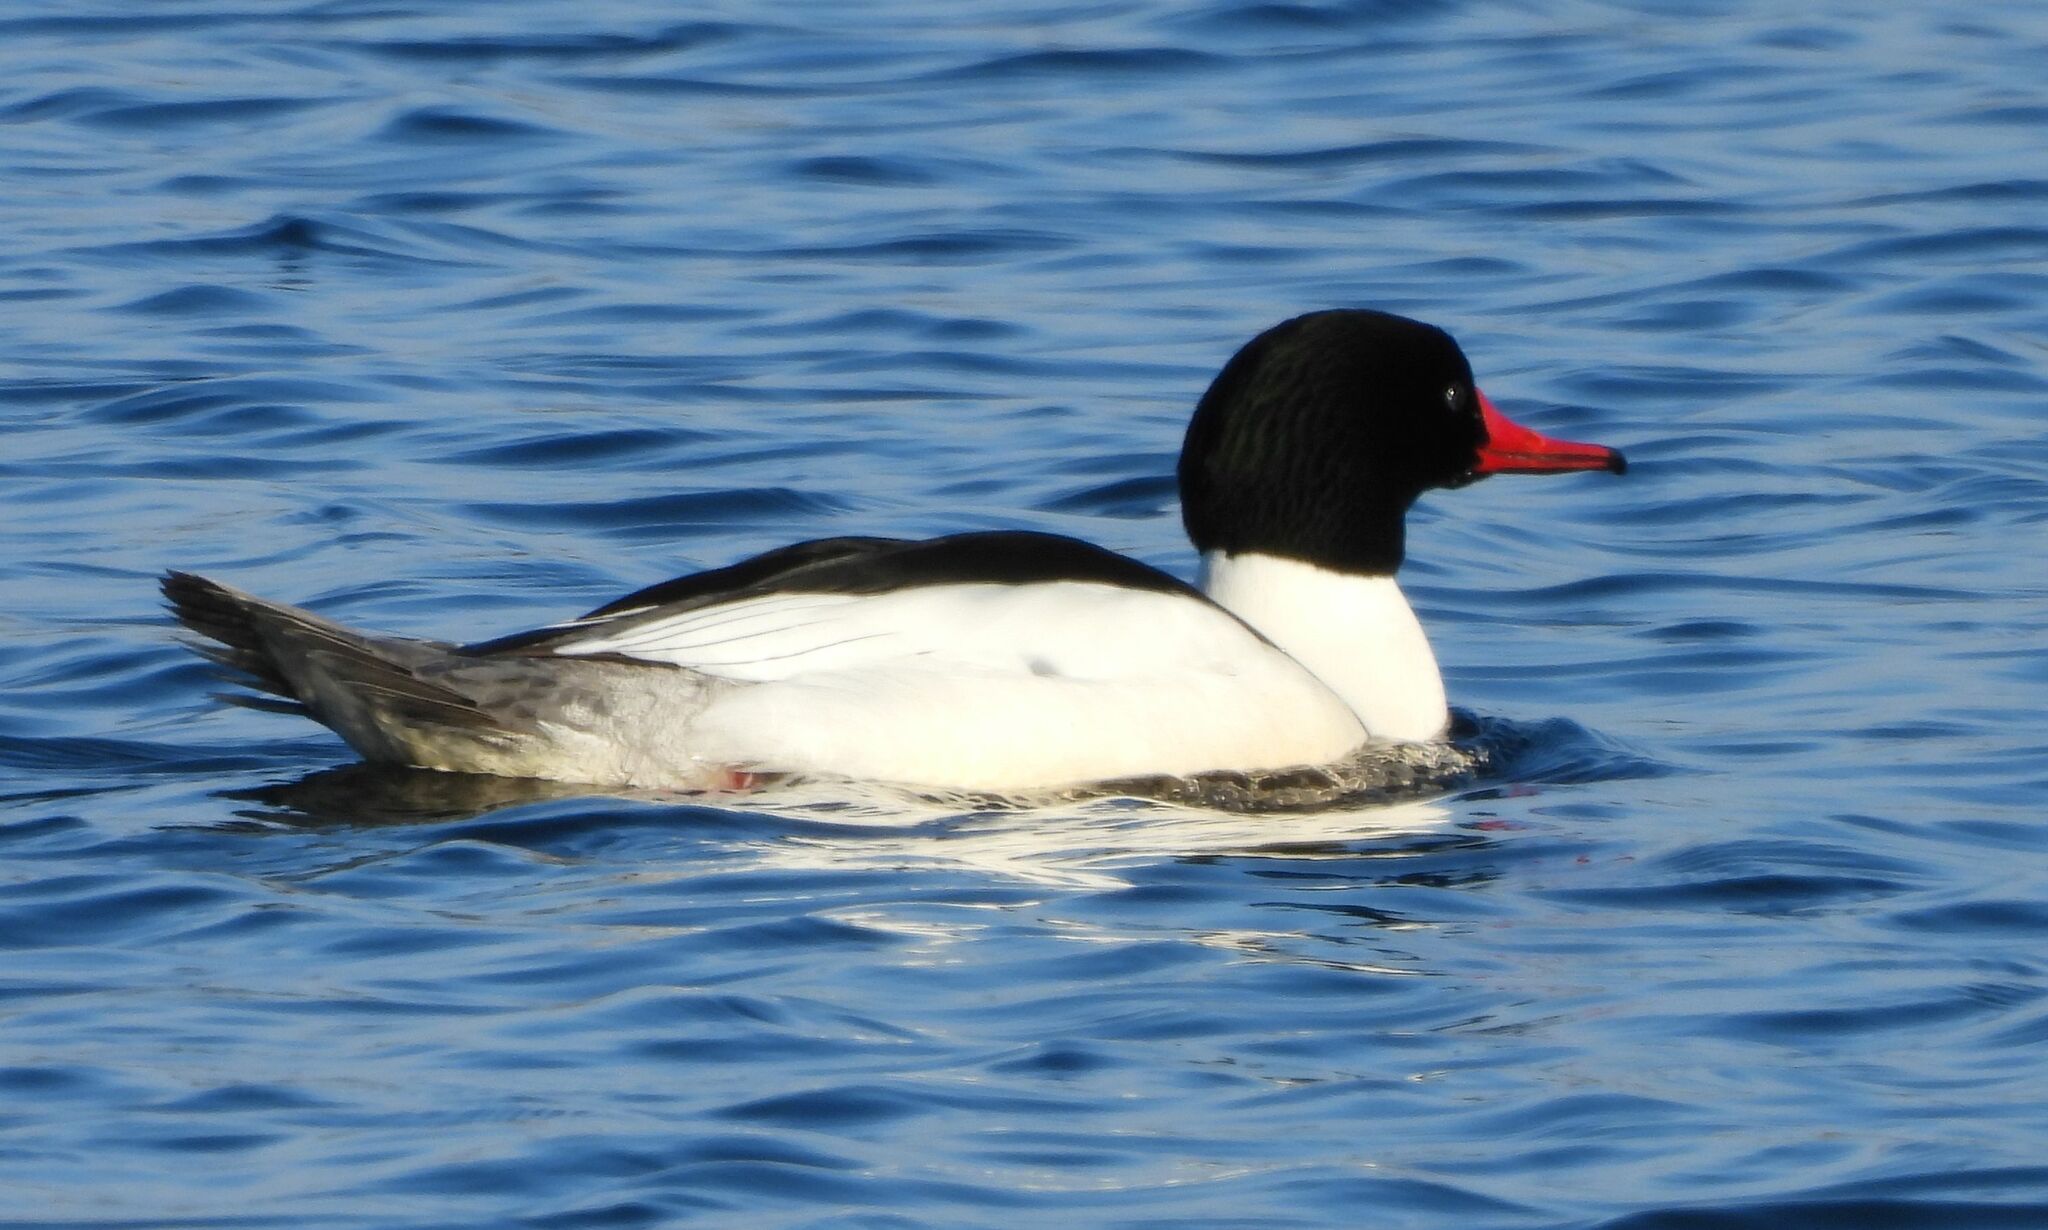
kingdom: Animalia
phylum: Chordata
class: Aves
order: Anseriformes
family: Anatidae
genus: Mergus
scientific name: Mergus merganser
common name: Common merganser
